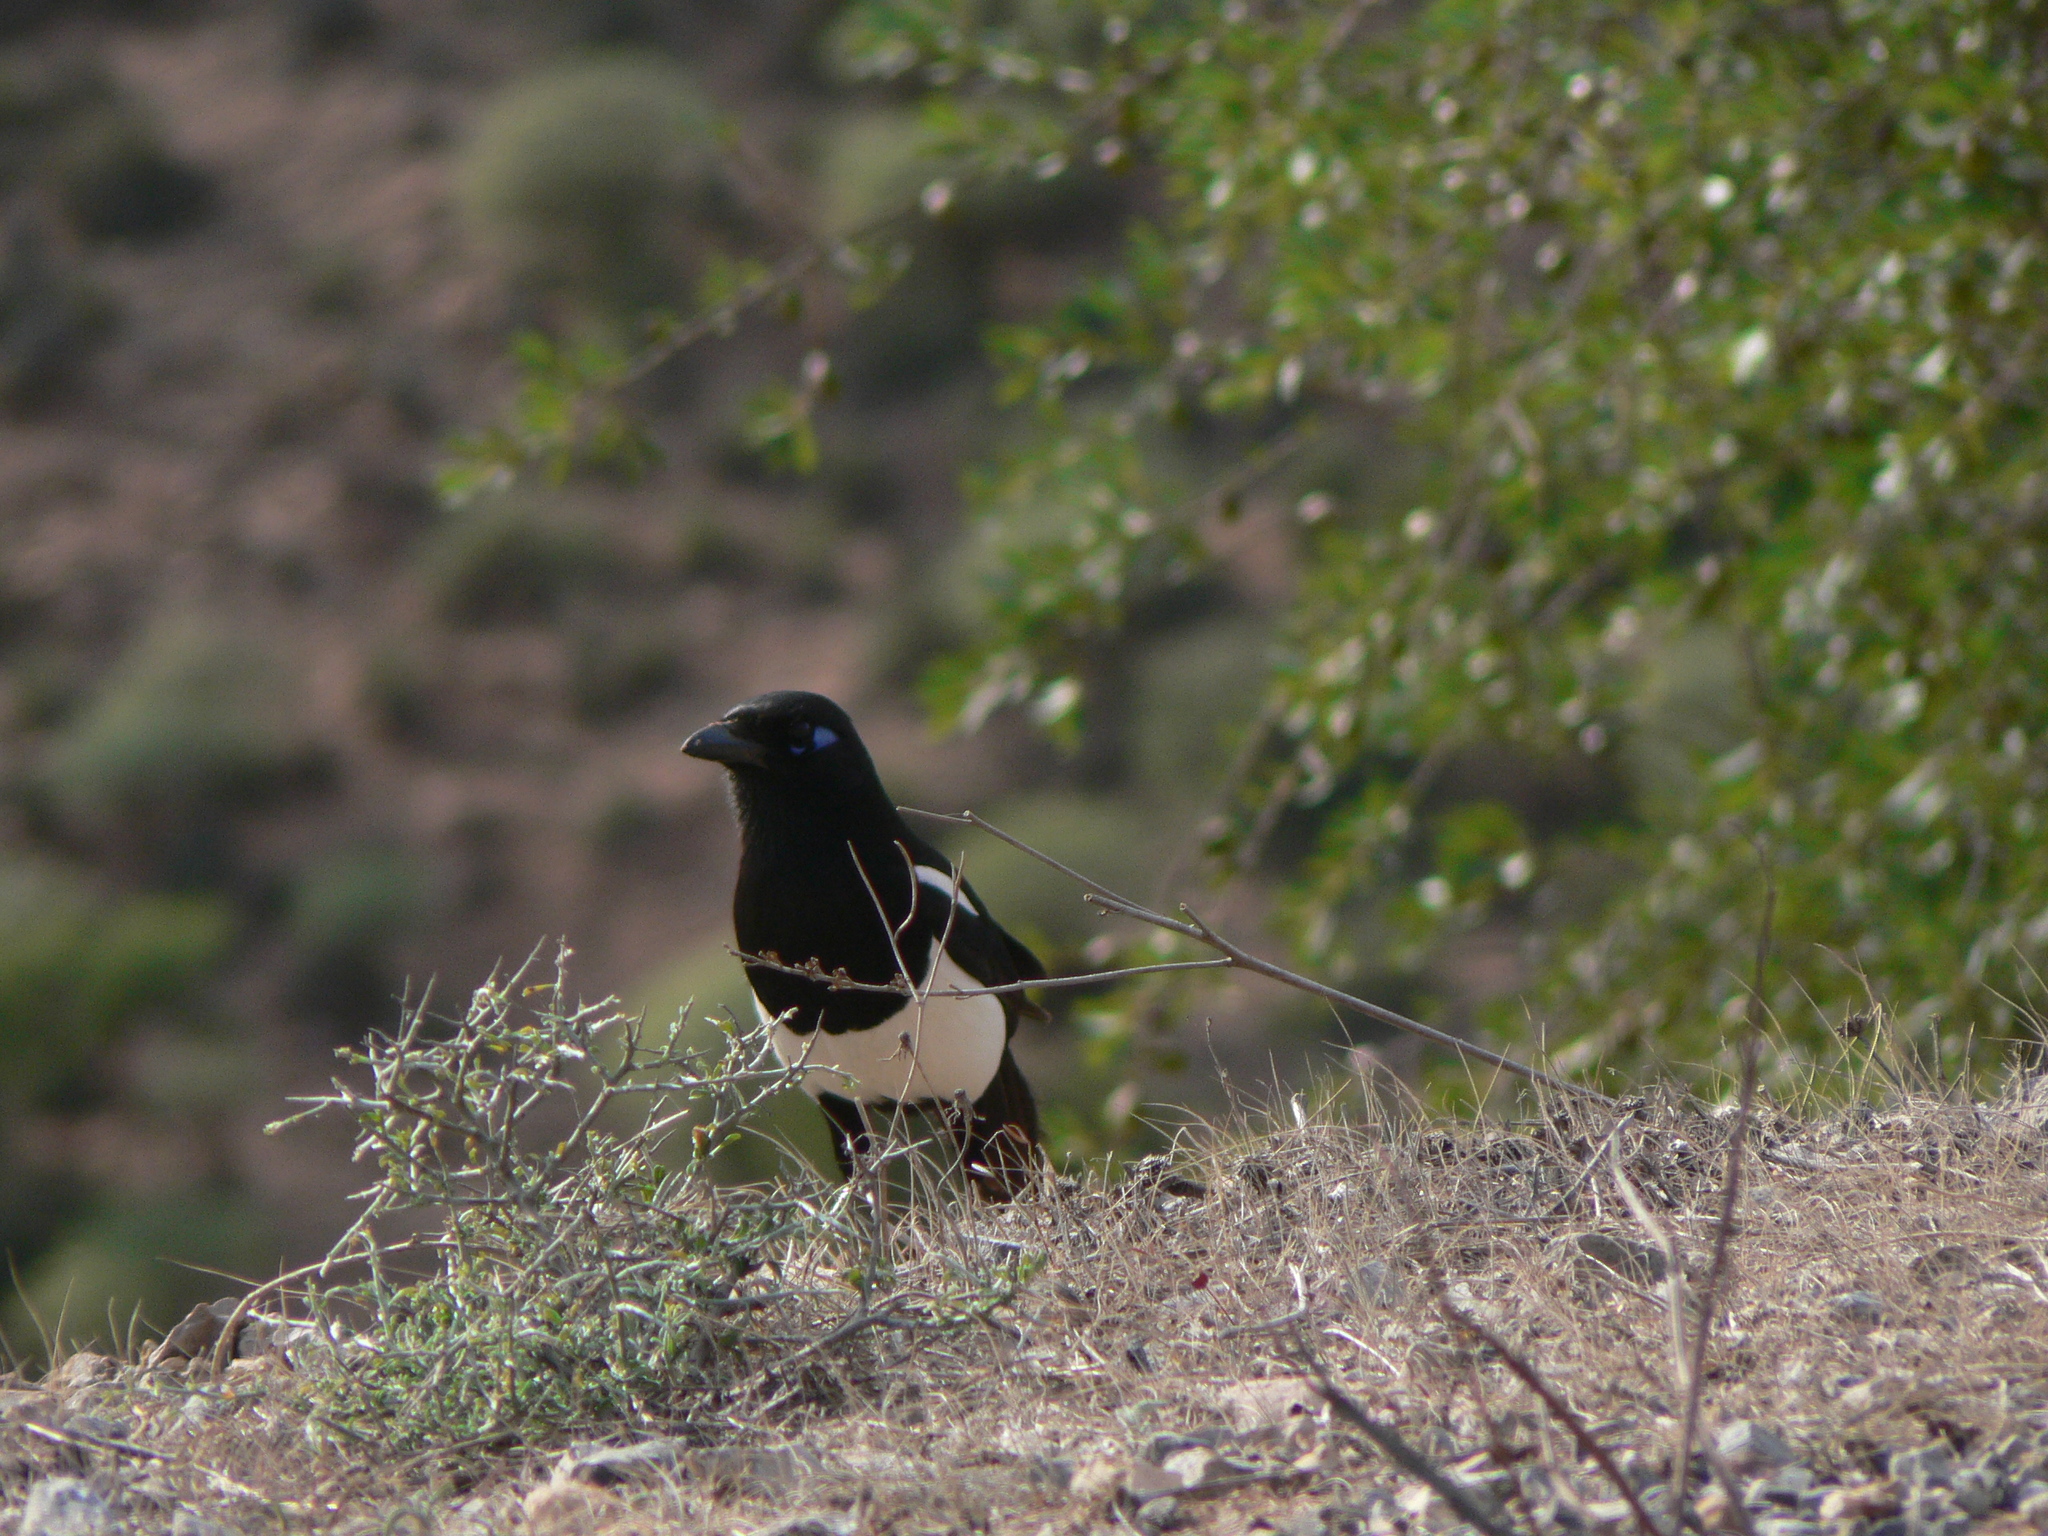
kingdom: Animalia
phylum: Chordata
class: Aves
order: Passeriformes
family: Corvidae
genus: Pica
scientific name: Pica mauritanica
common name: Maghreb magpie
